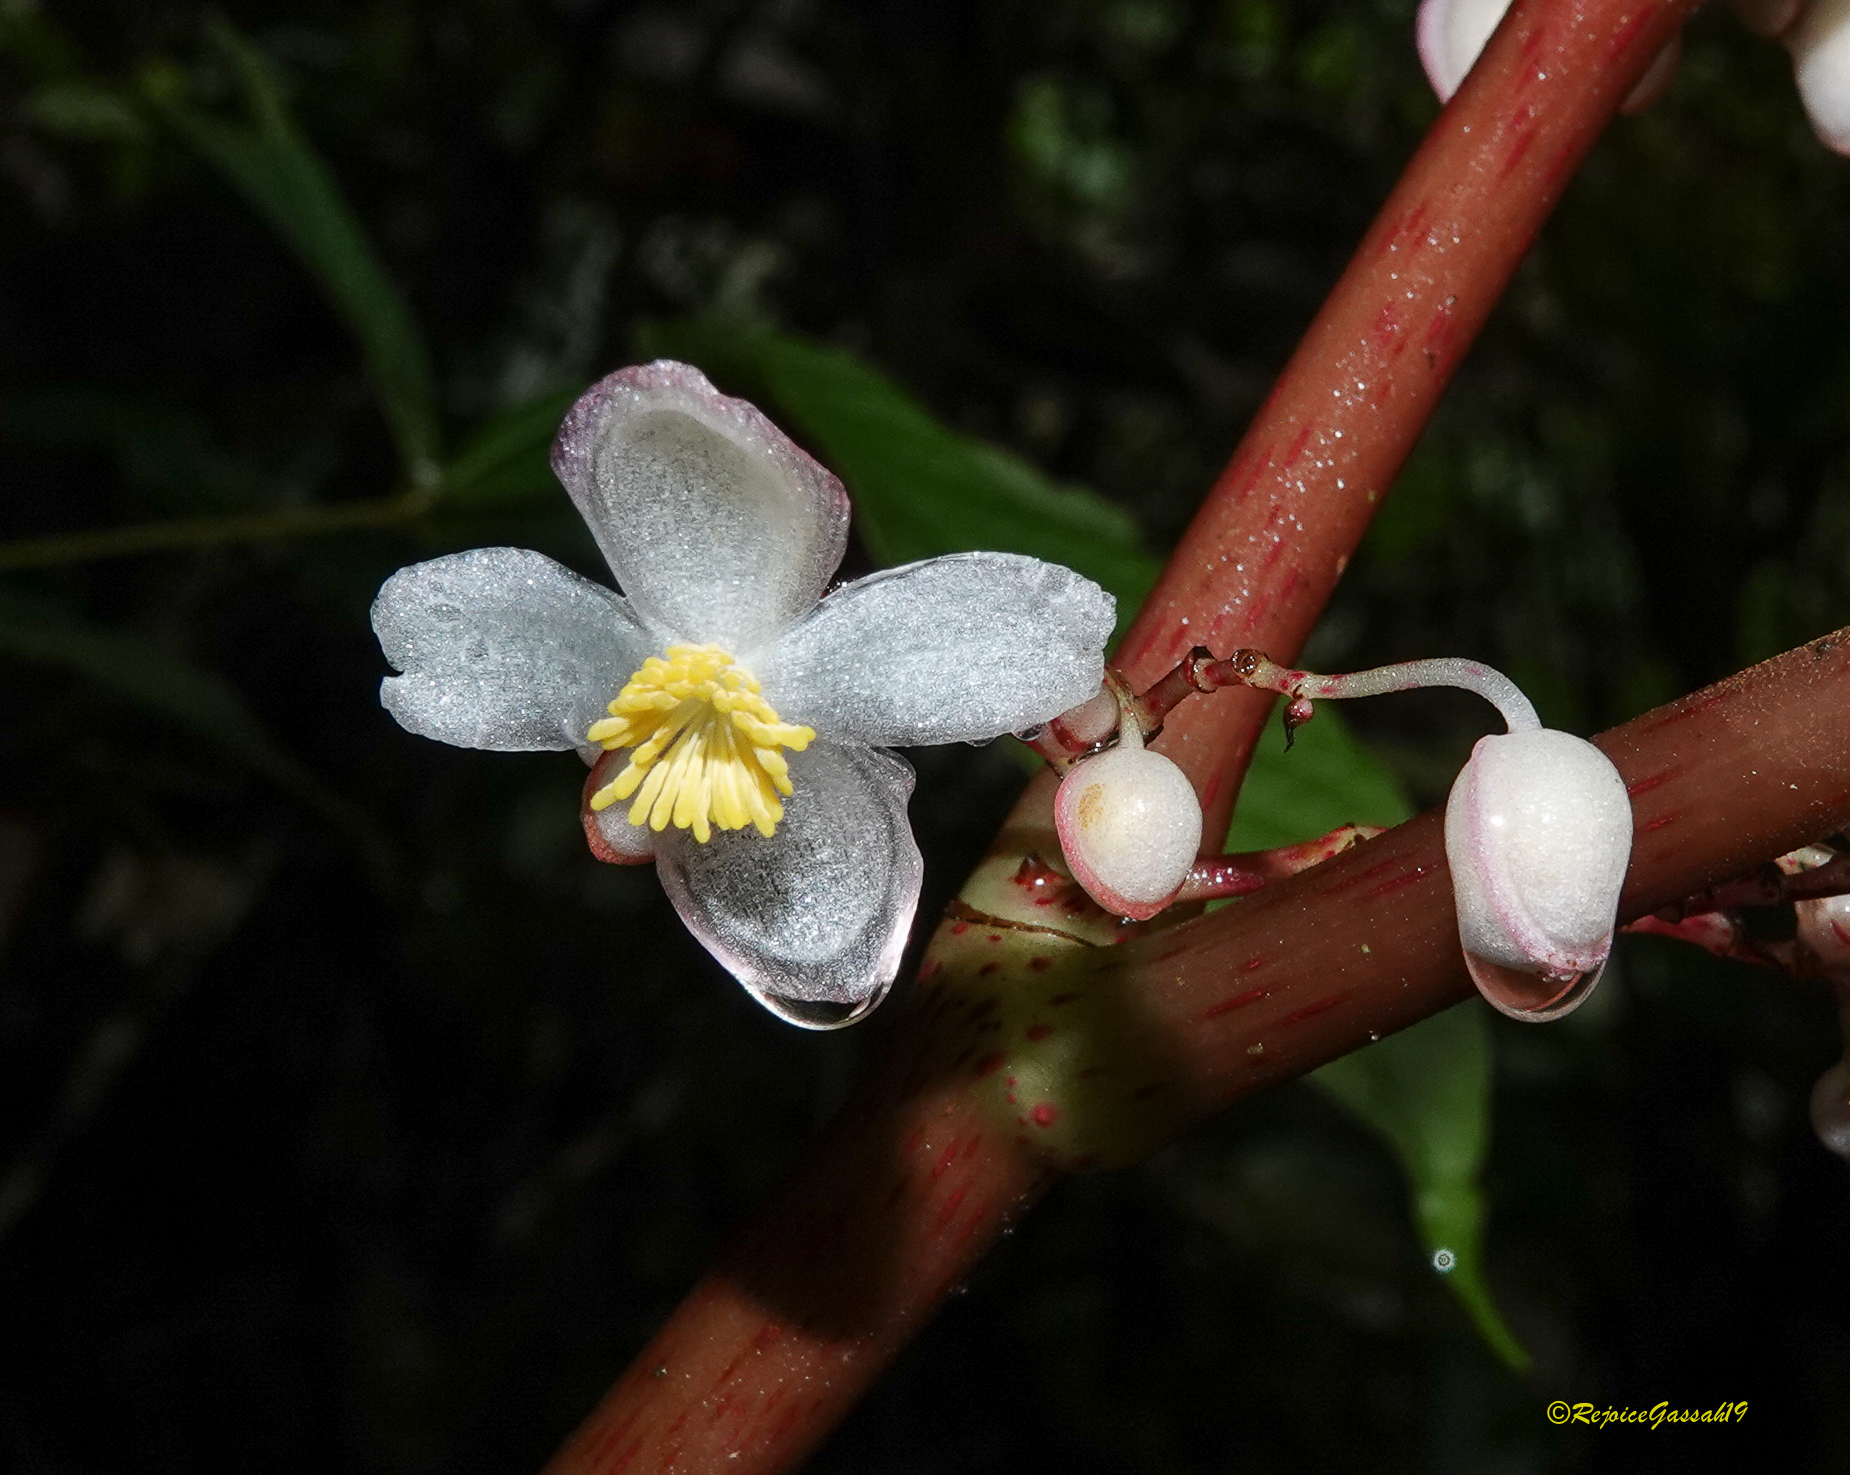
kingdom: Plantae
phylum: Tracheophyta
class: Magnoliopsida
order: Cucurbitales
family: Begoniaceae
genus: Begonia
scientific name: Begonia roxburghii
